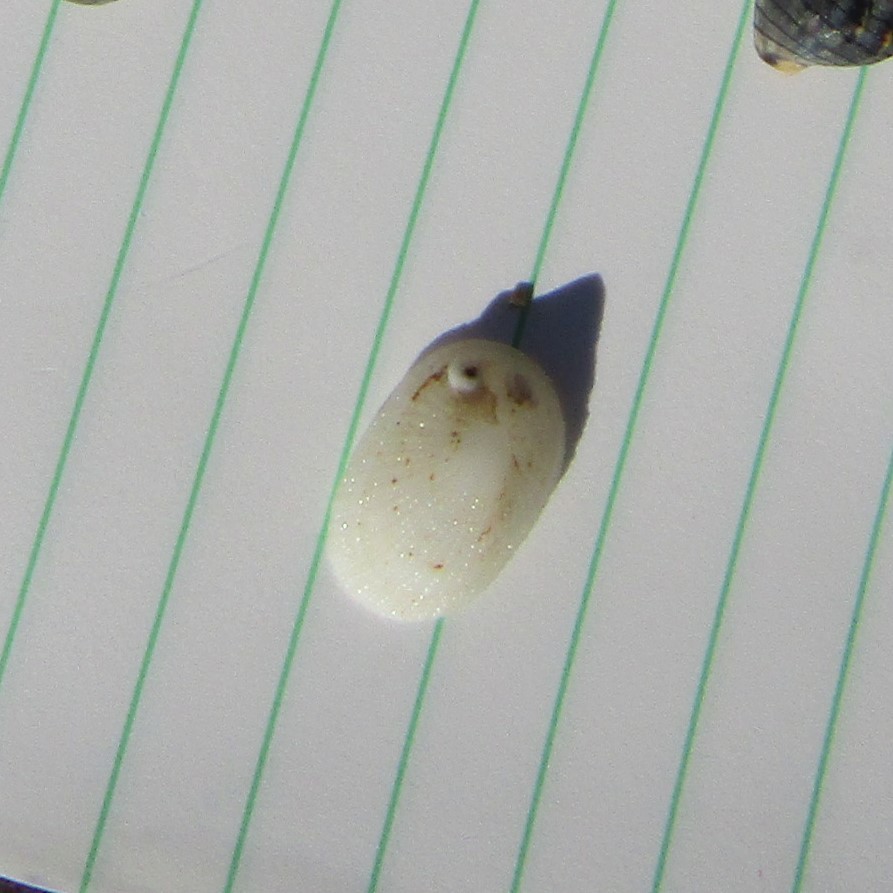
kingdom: Animalia
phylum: Mollusca
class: Gastropoda
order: Lepetellida
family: Fissurellidae
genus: Tugali
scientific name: Tugali suteri
